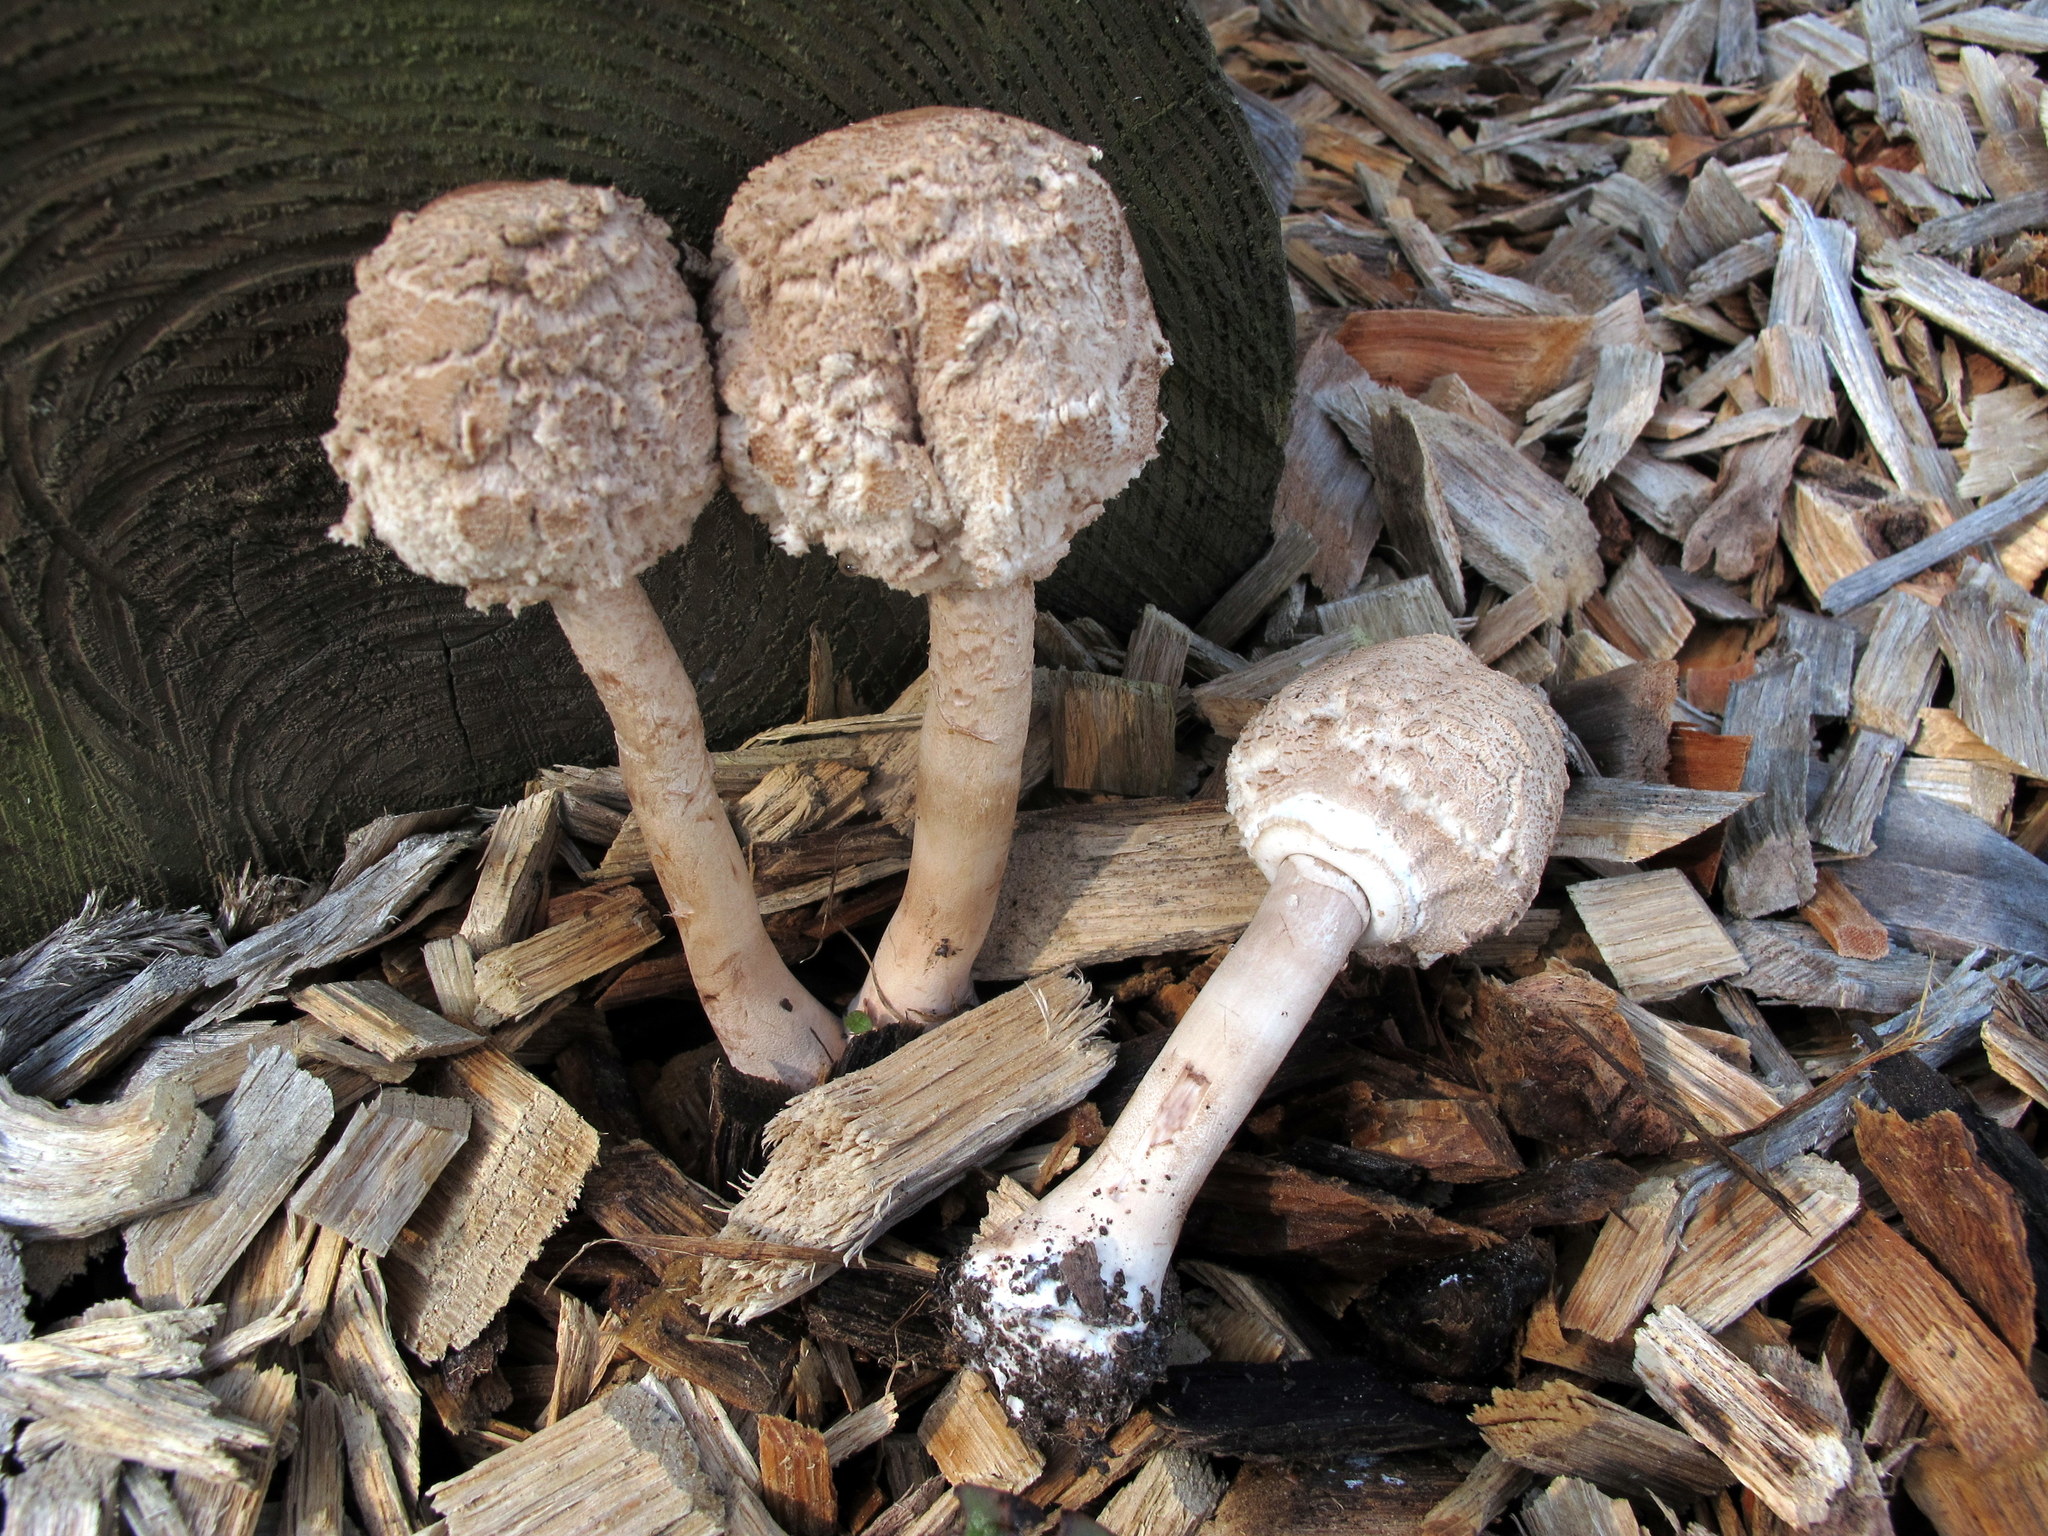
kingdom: Fungi
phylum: Basidiomycota
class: Agaricomycetes
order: Agaricales
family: Agaricaceae
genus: Chlorophyllum
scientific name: Chlorophyllum rhacodes
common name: Shaggy parasol
